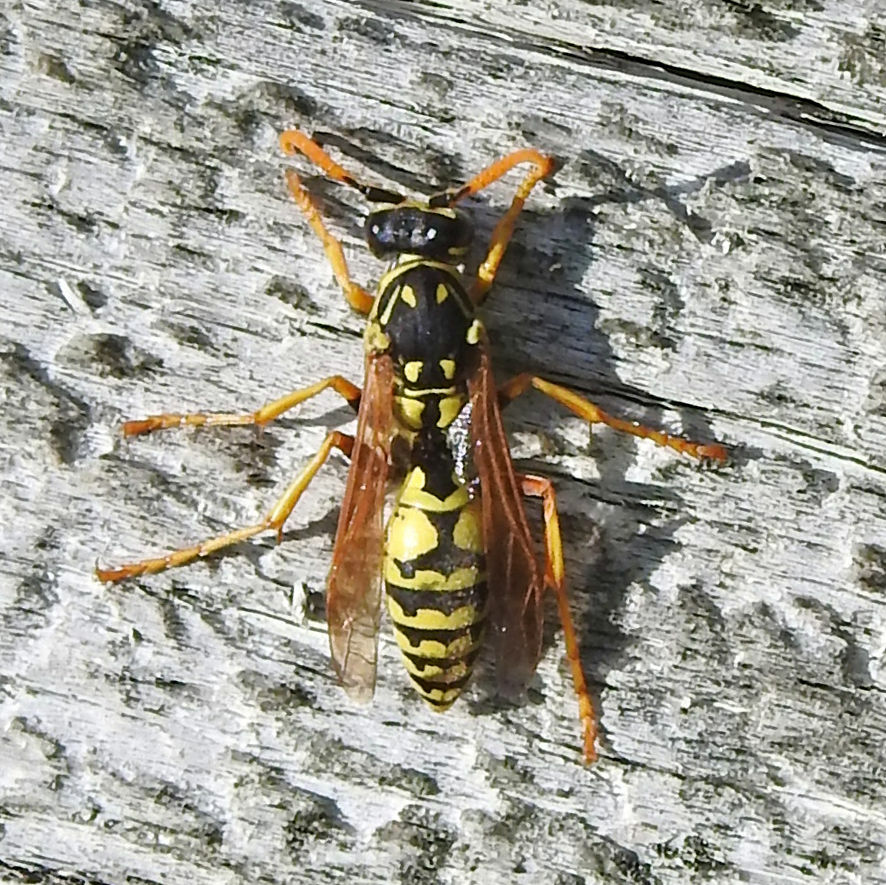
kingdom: Animalia
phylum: Arthropoda
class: Insecta
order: Hymenoptera
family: Eumenidae
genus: Polistes
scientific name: Polistes dominula
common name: Paper wasp
